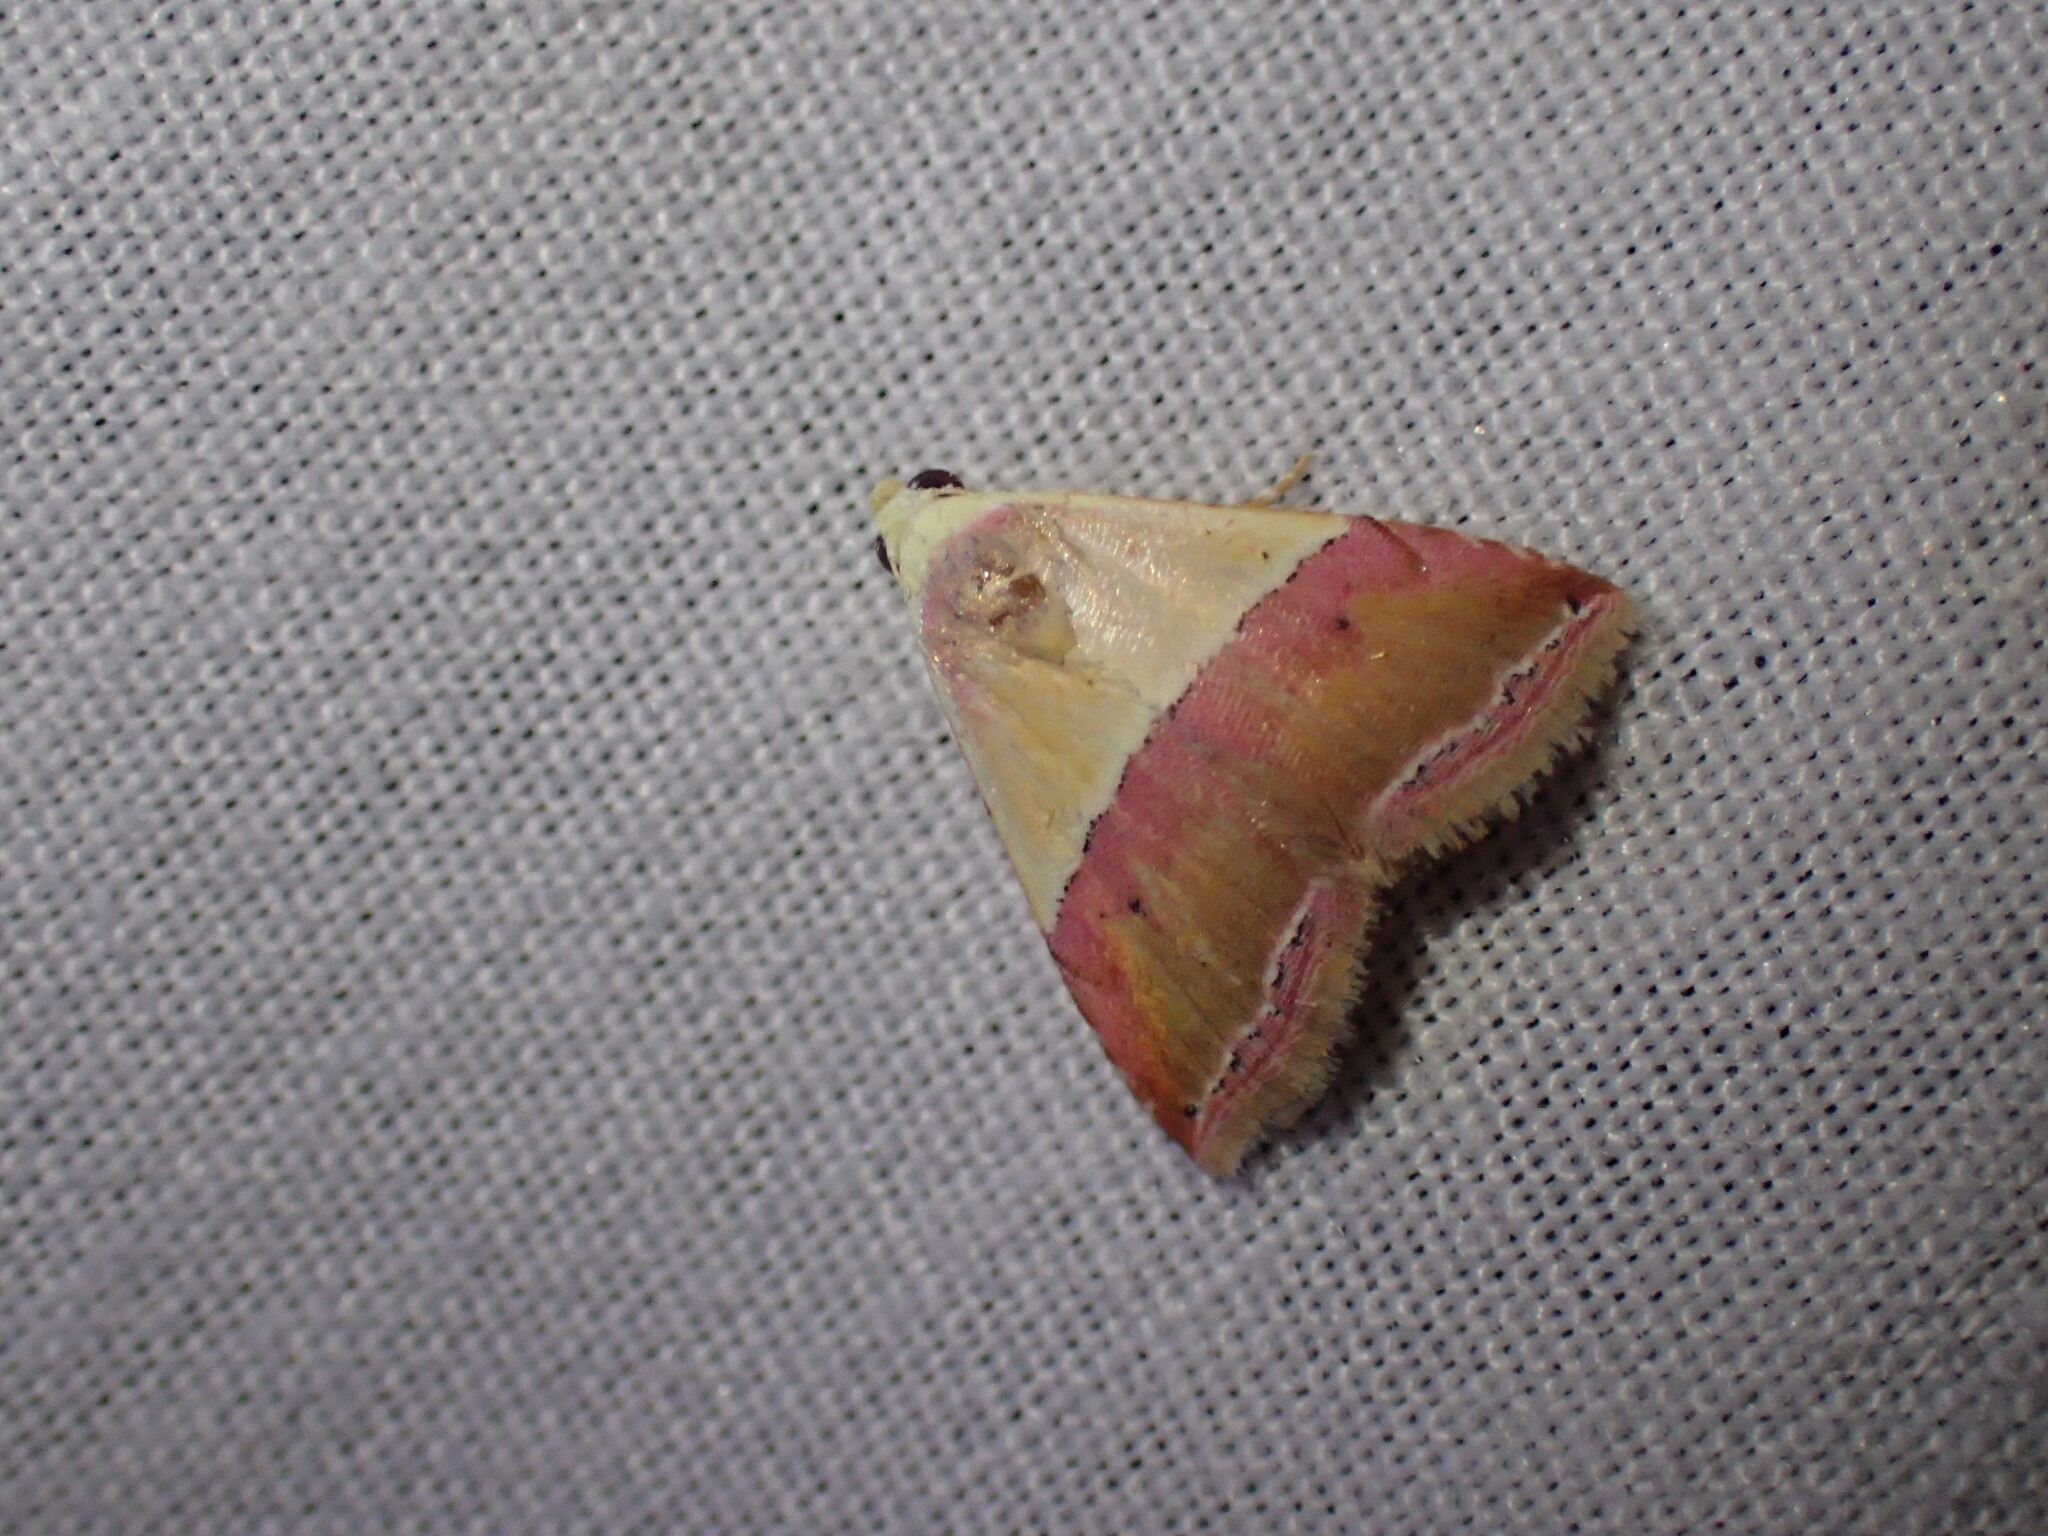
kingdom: Animalia
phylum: Arthropoda
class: Insecta
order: Lepidoptera
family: Noctuidae
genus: Eublemma
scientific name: Eublemma caffrorum
